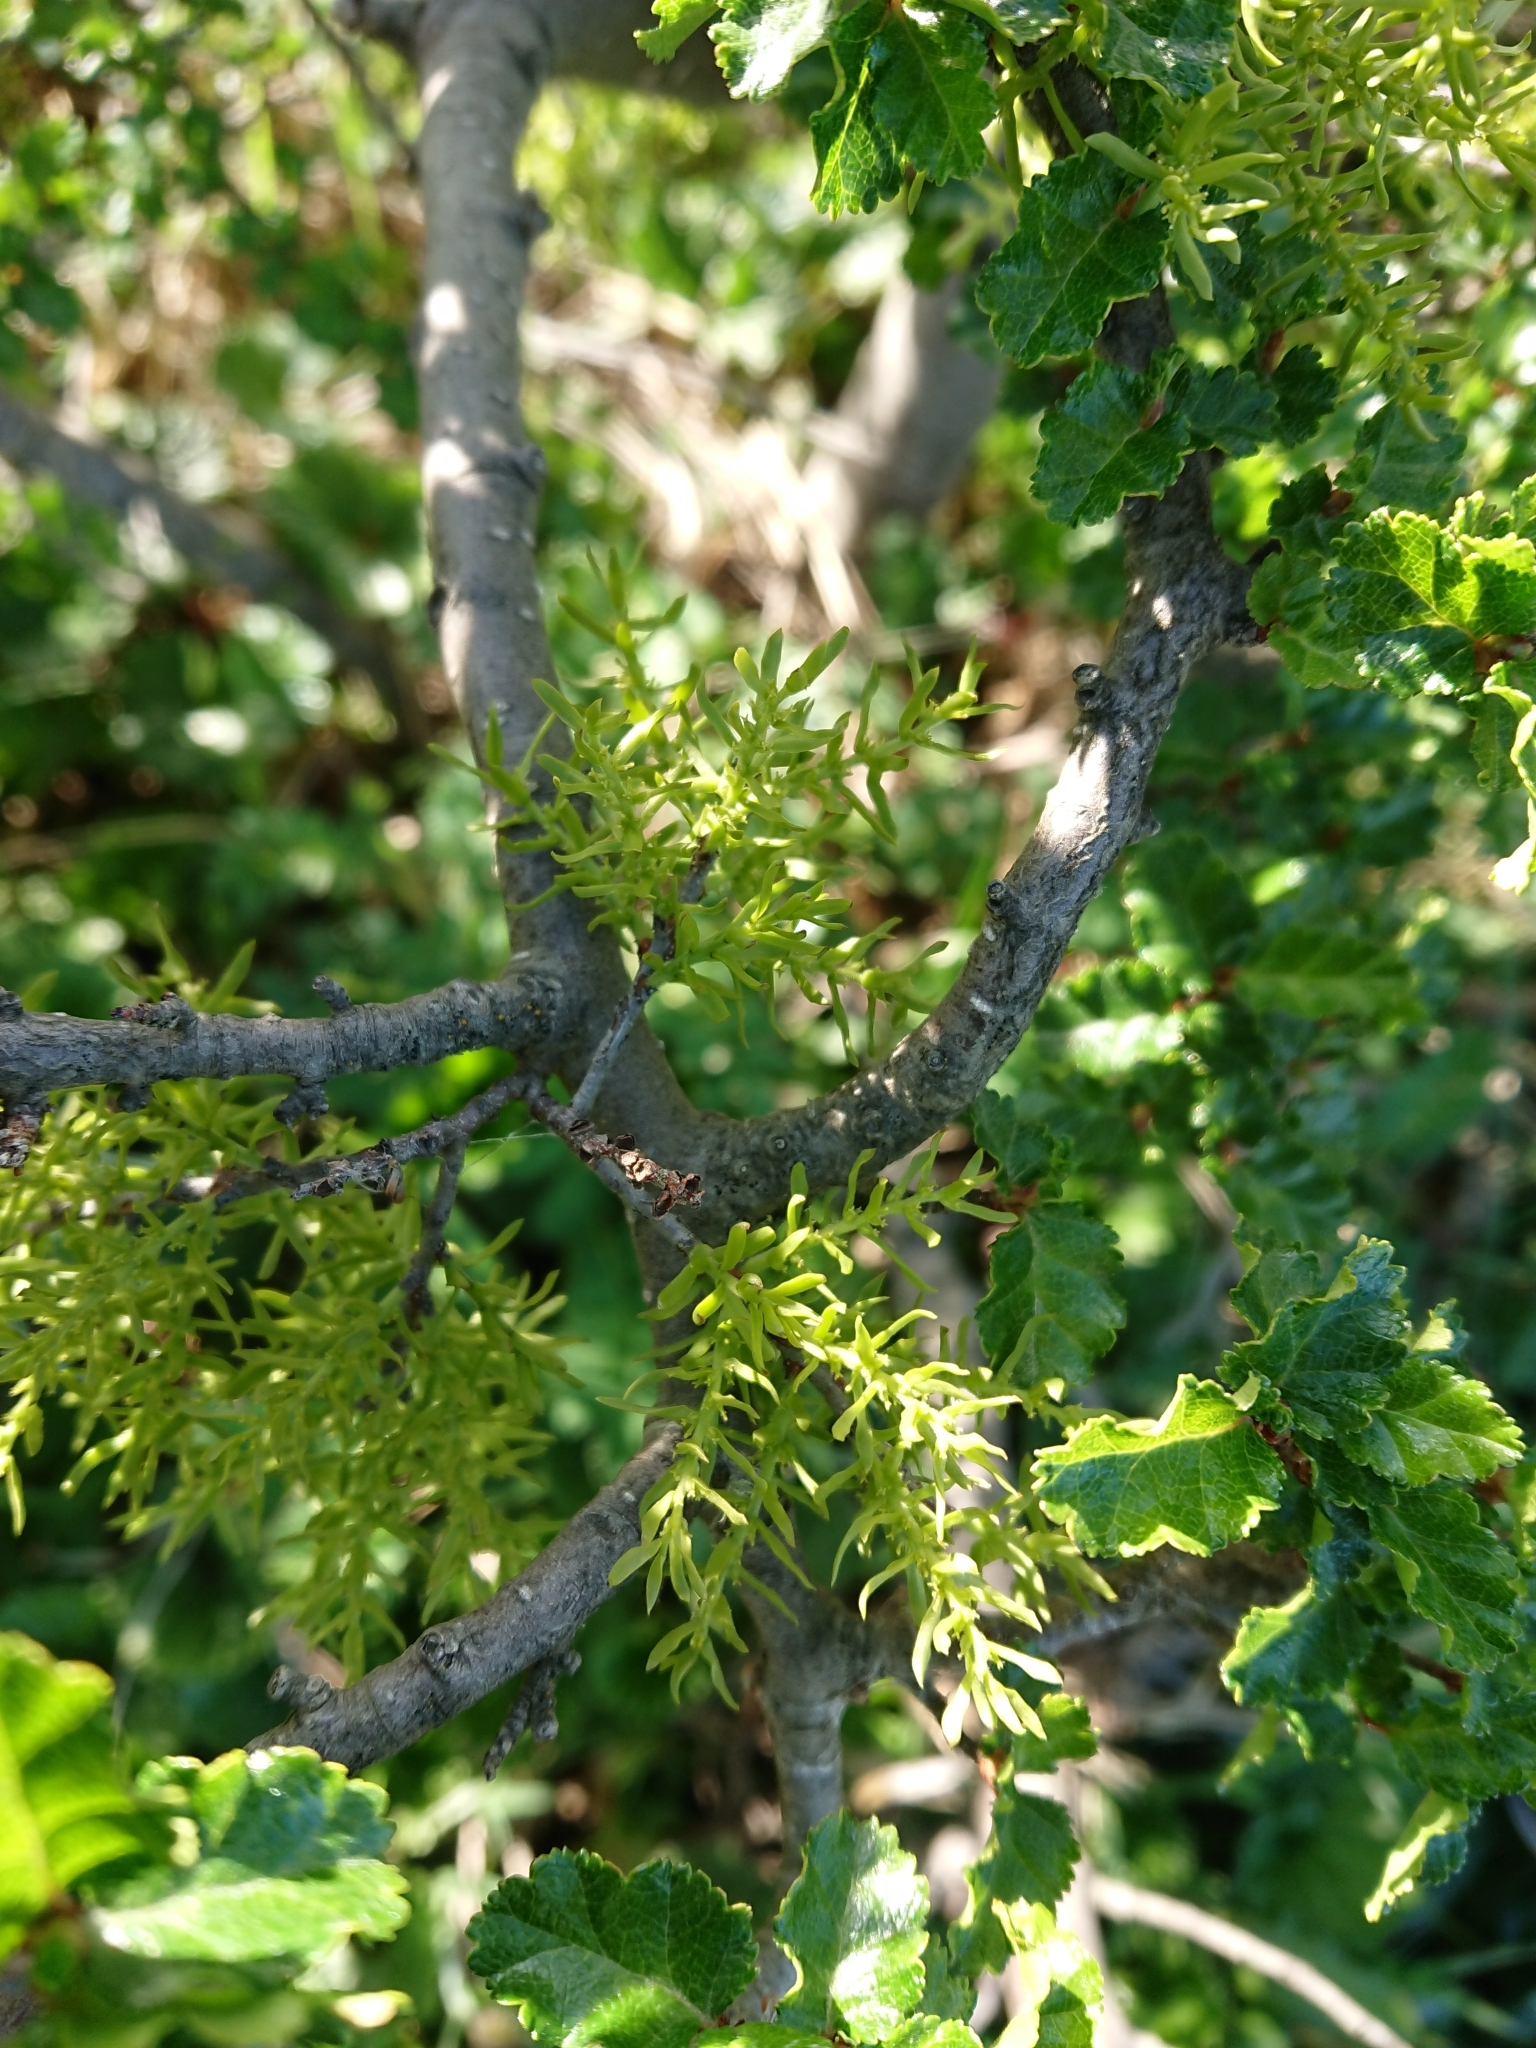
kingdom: Plantae
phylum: Tracheophyta
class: Magnoliopsida
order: Santalales
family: Misodendraceae
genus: Misodendrum
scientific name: Misodendrum linearifolium
